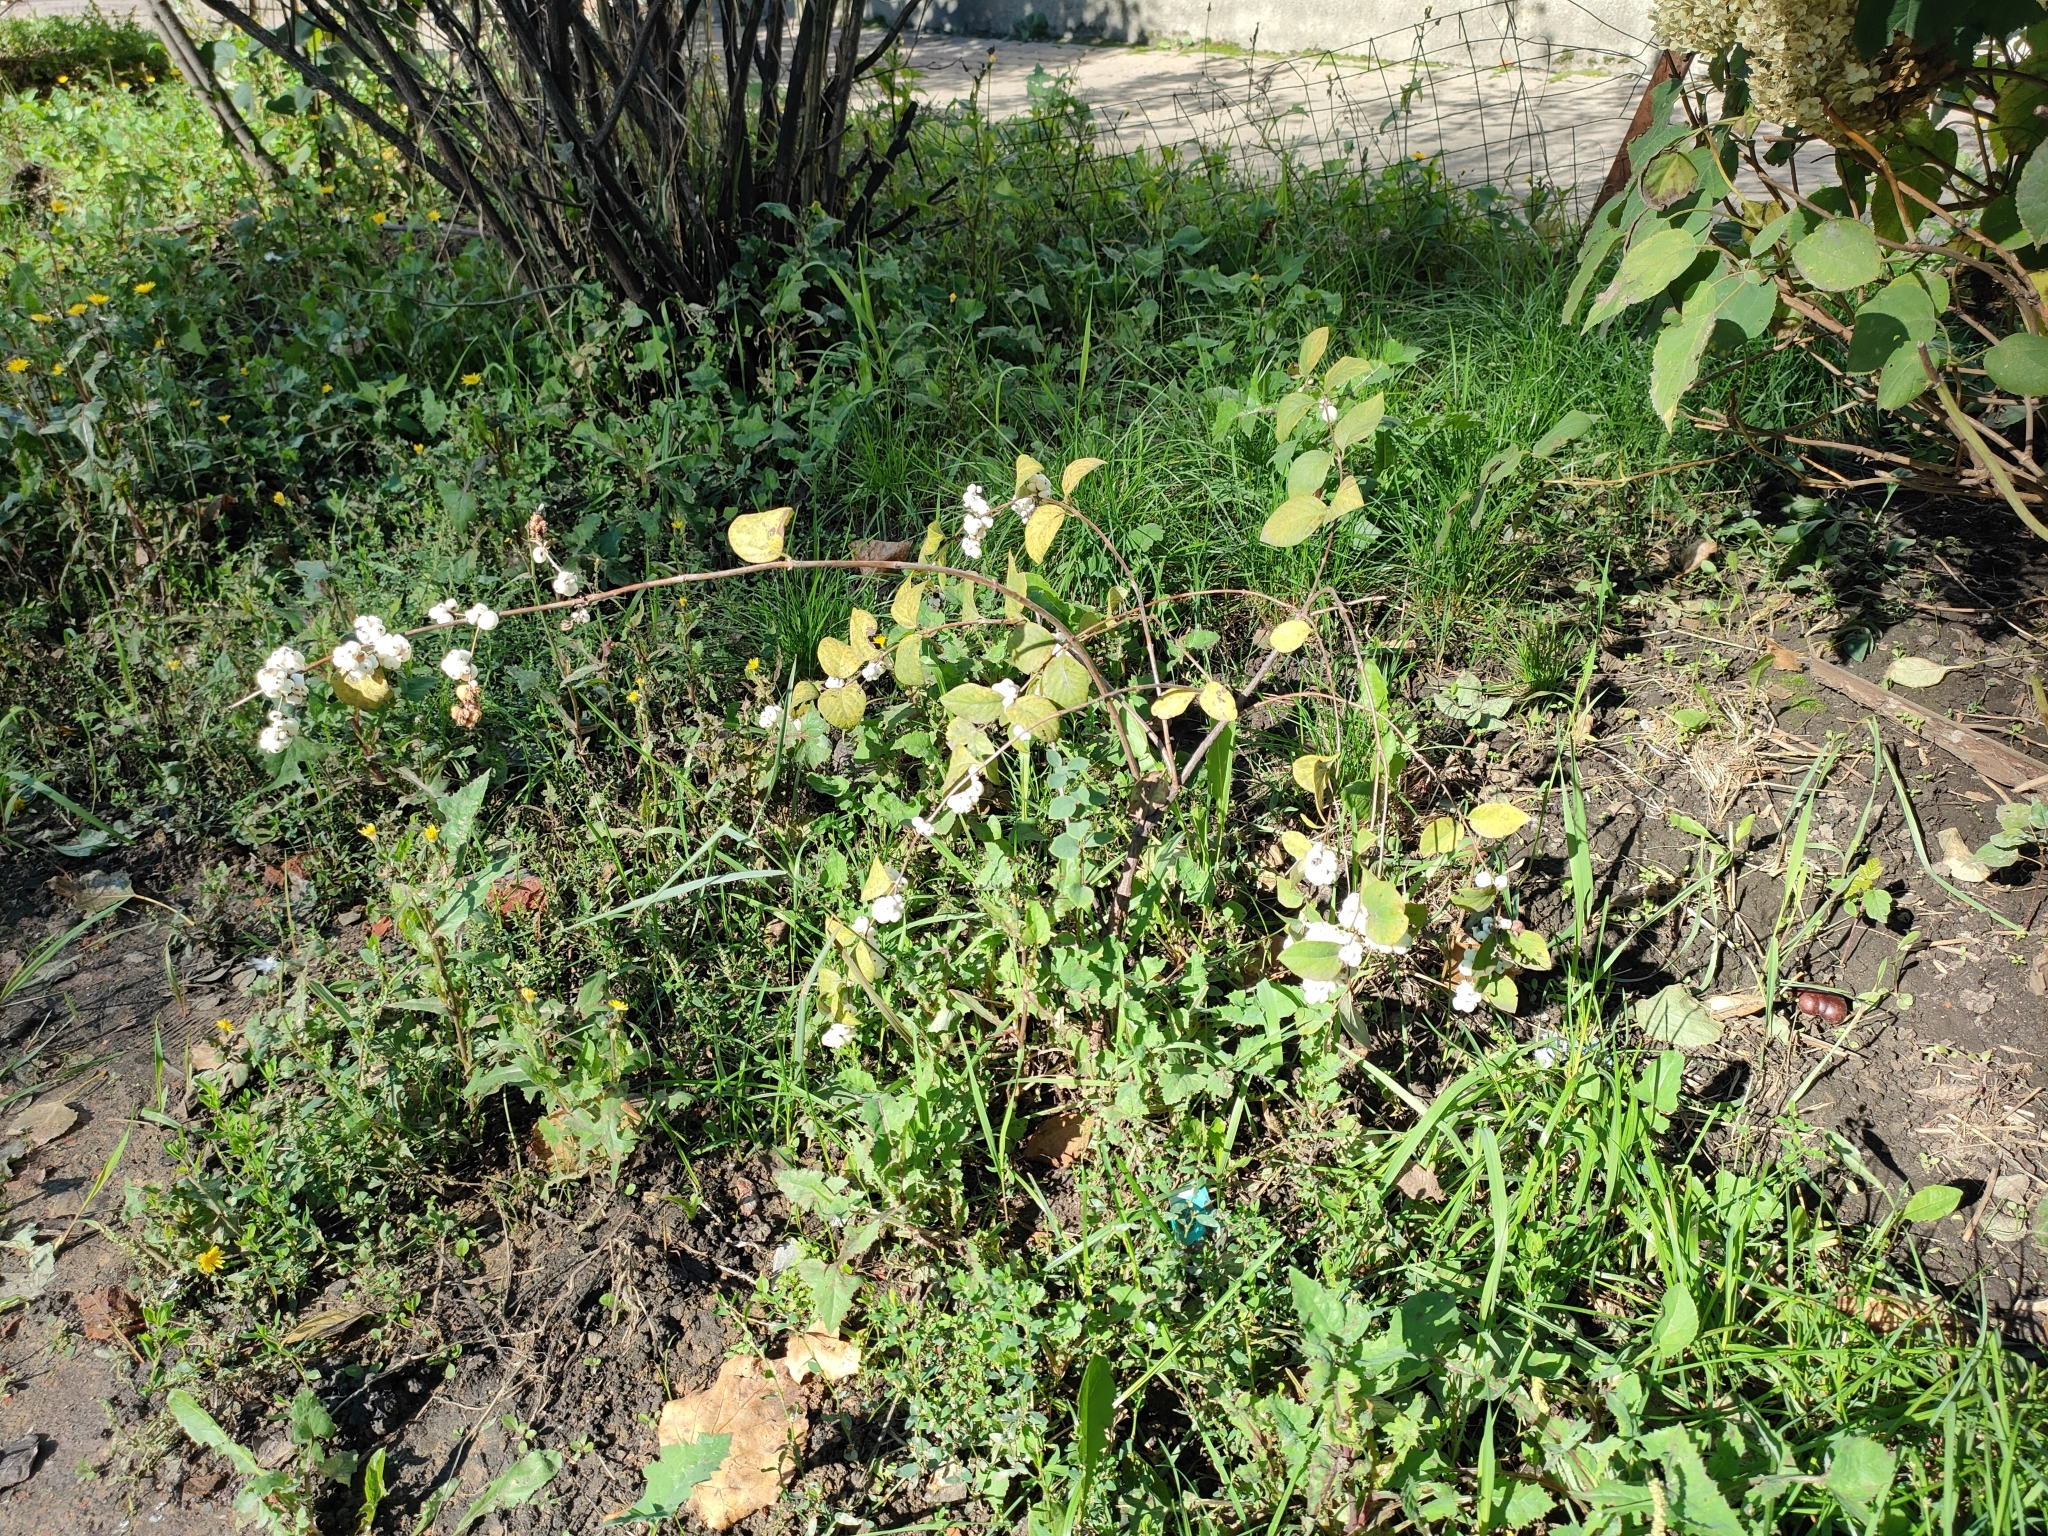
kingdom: Plantae
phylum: Tracheophyta
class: Magnoliopsida
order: Dipsacales
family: Caprifoliaceae
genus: Symphoricarpos
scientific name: Symphoricarpos albus
